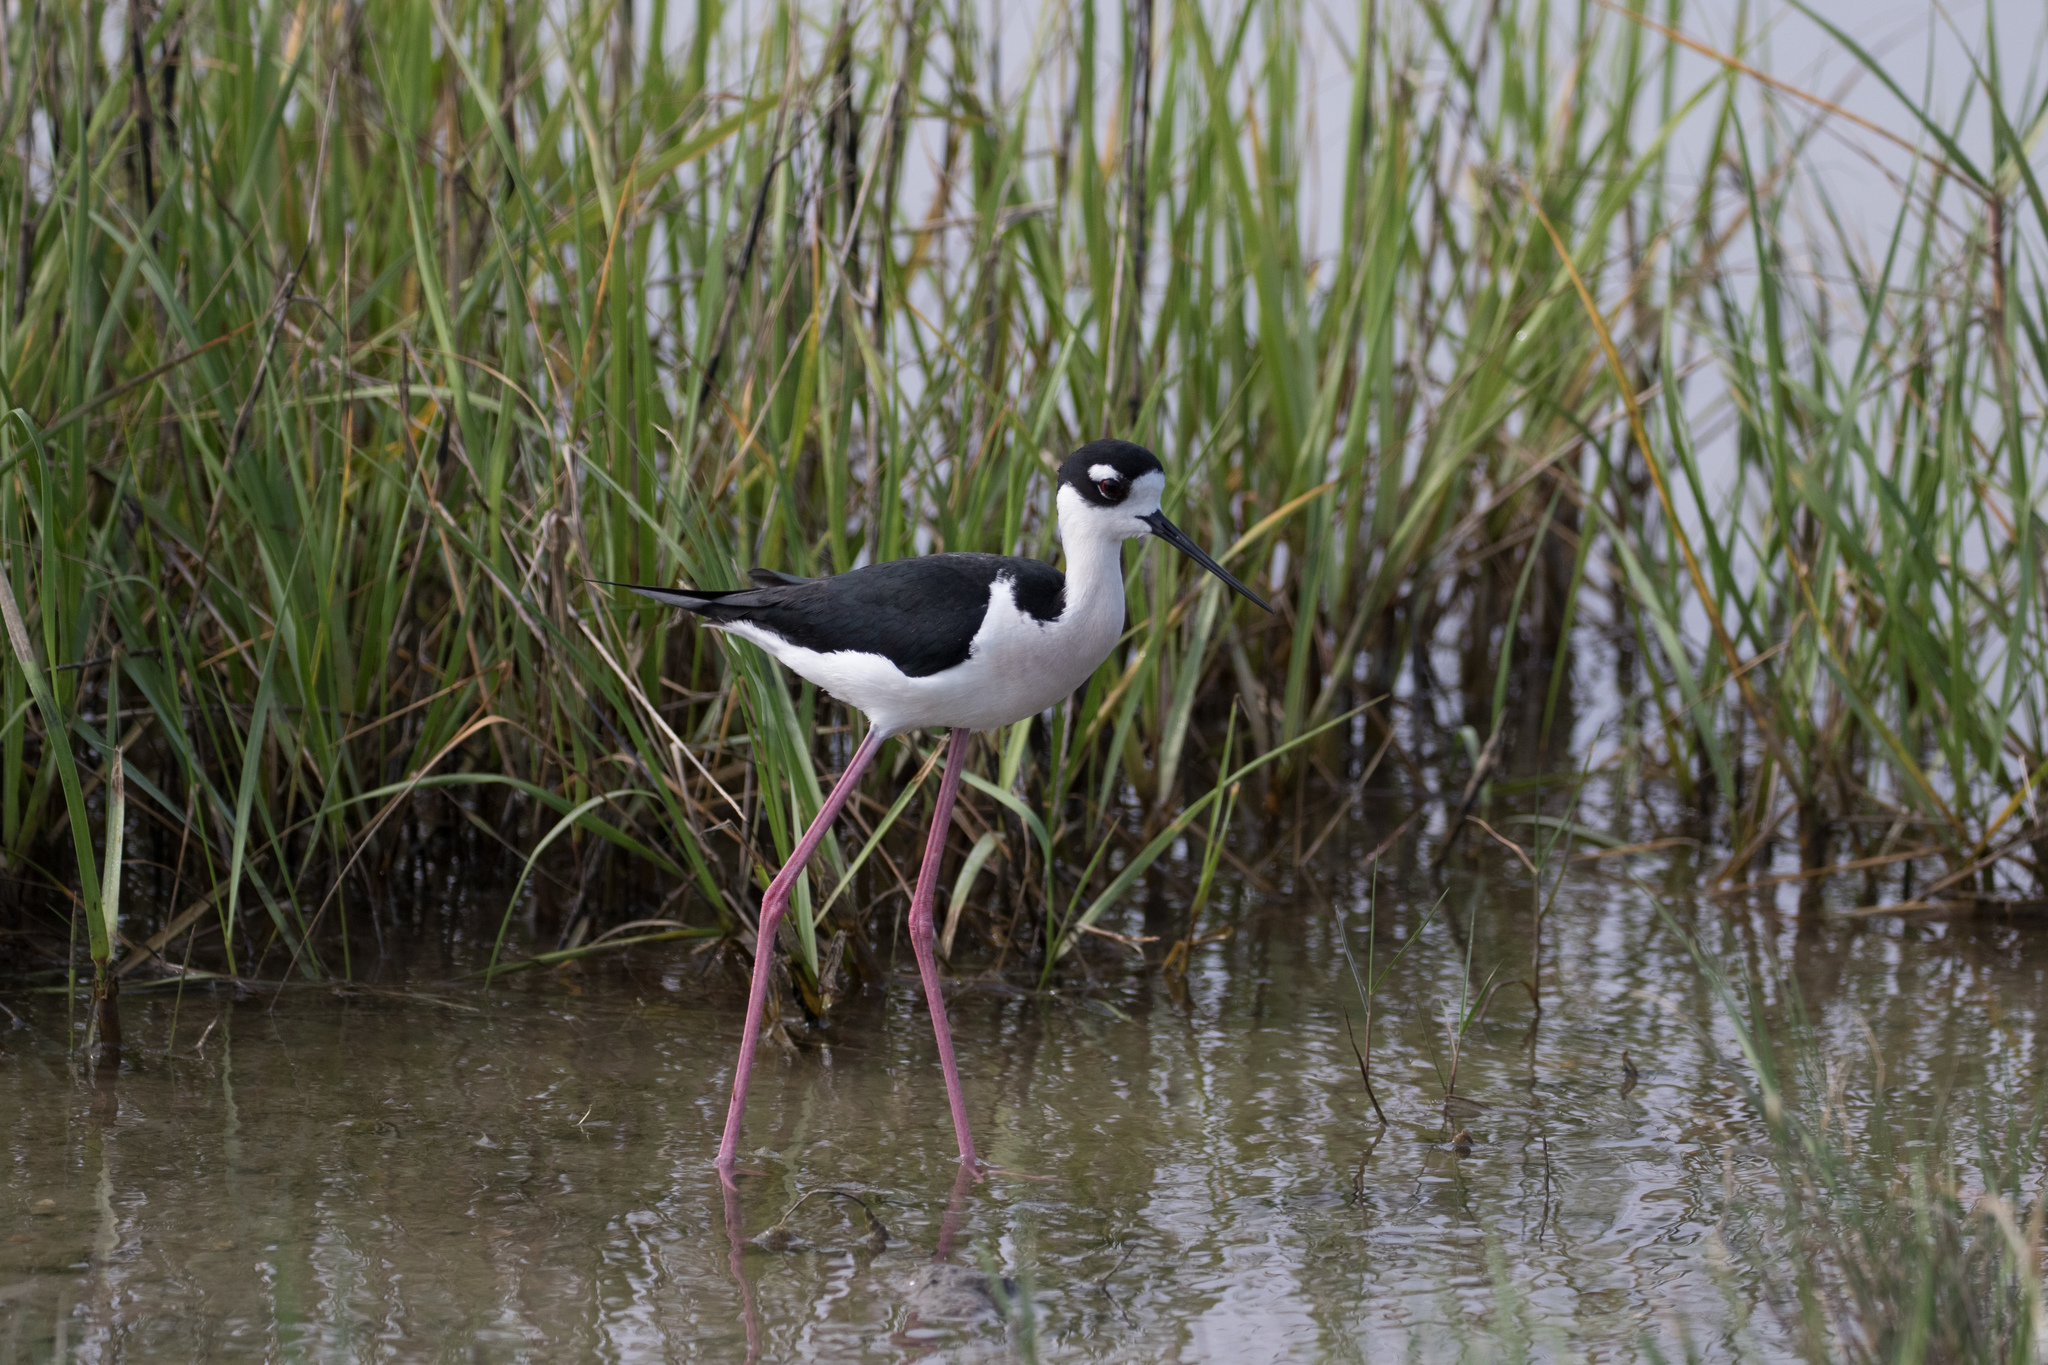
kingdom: Animalia
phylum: Chordata
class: Aves
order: Charadriiformes
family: Recurvirostridae
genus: Himantopus
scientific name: Himantopus mexicanus
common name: Black-necked stilt
